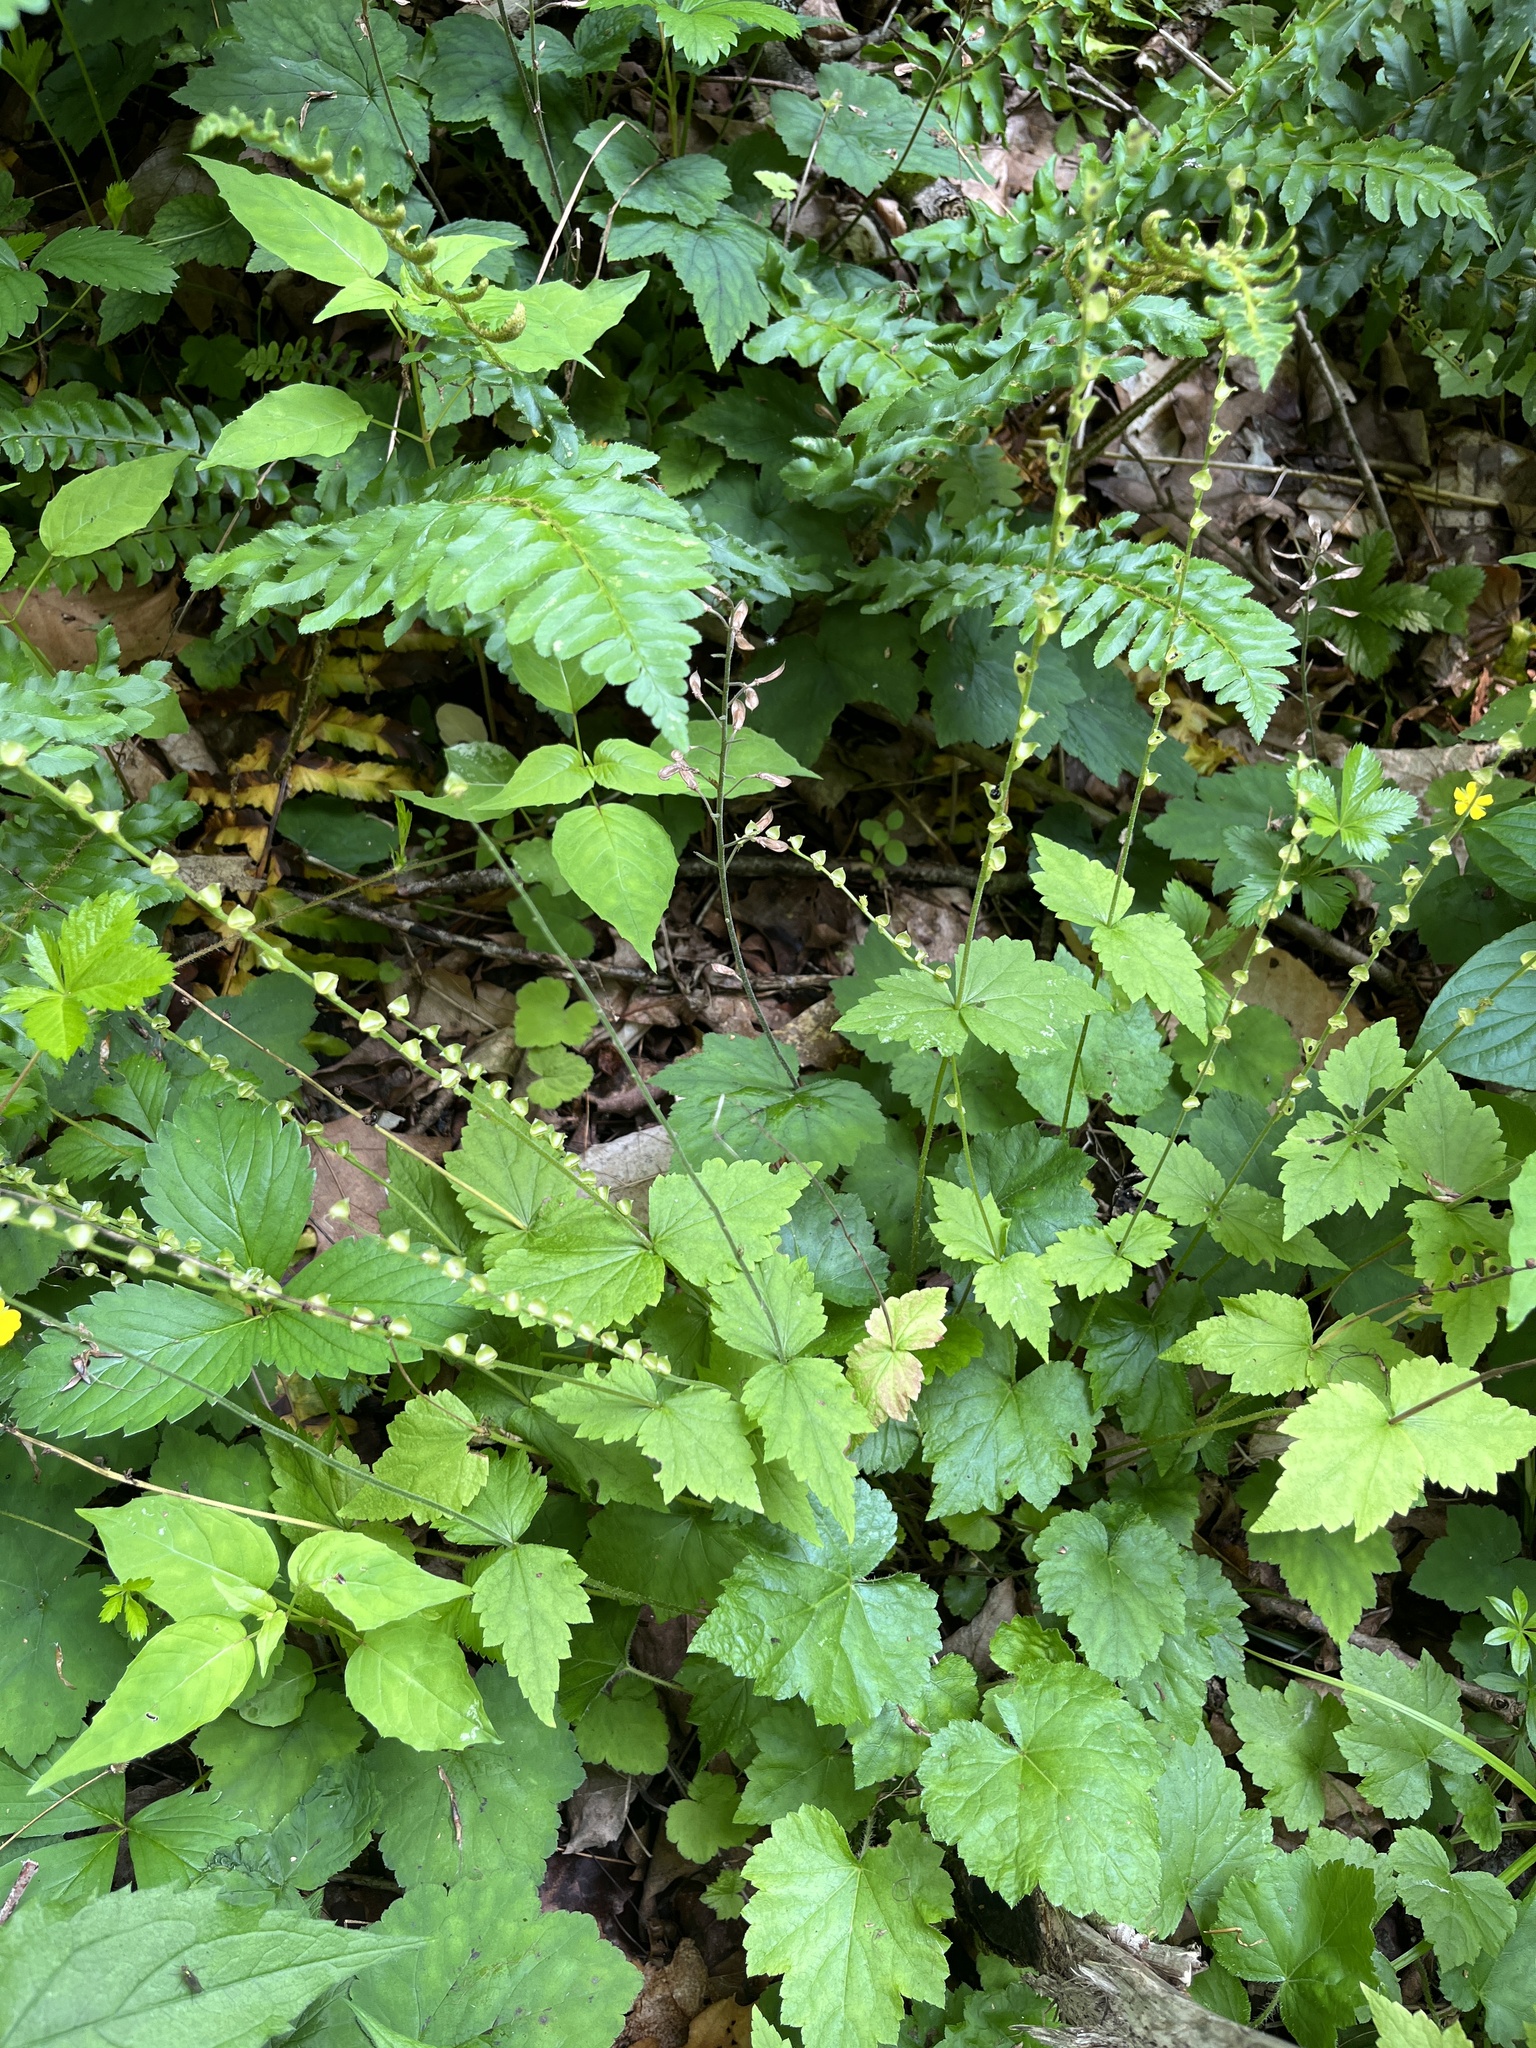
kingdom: Plantae
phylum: Tracheophyta
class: Magnoliopsida
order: Saxifragales
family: Saxifragaceae
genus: Mitella
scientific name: Mitella diphylla
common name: Coolwort
